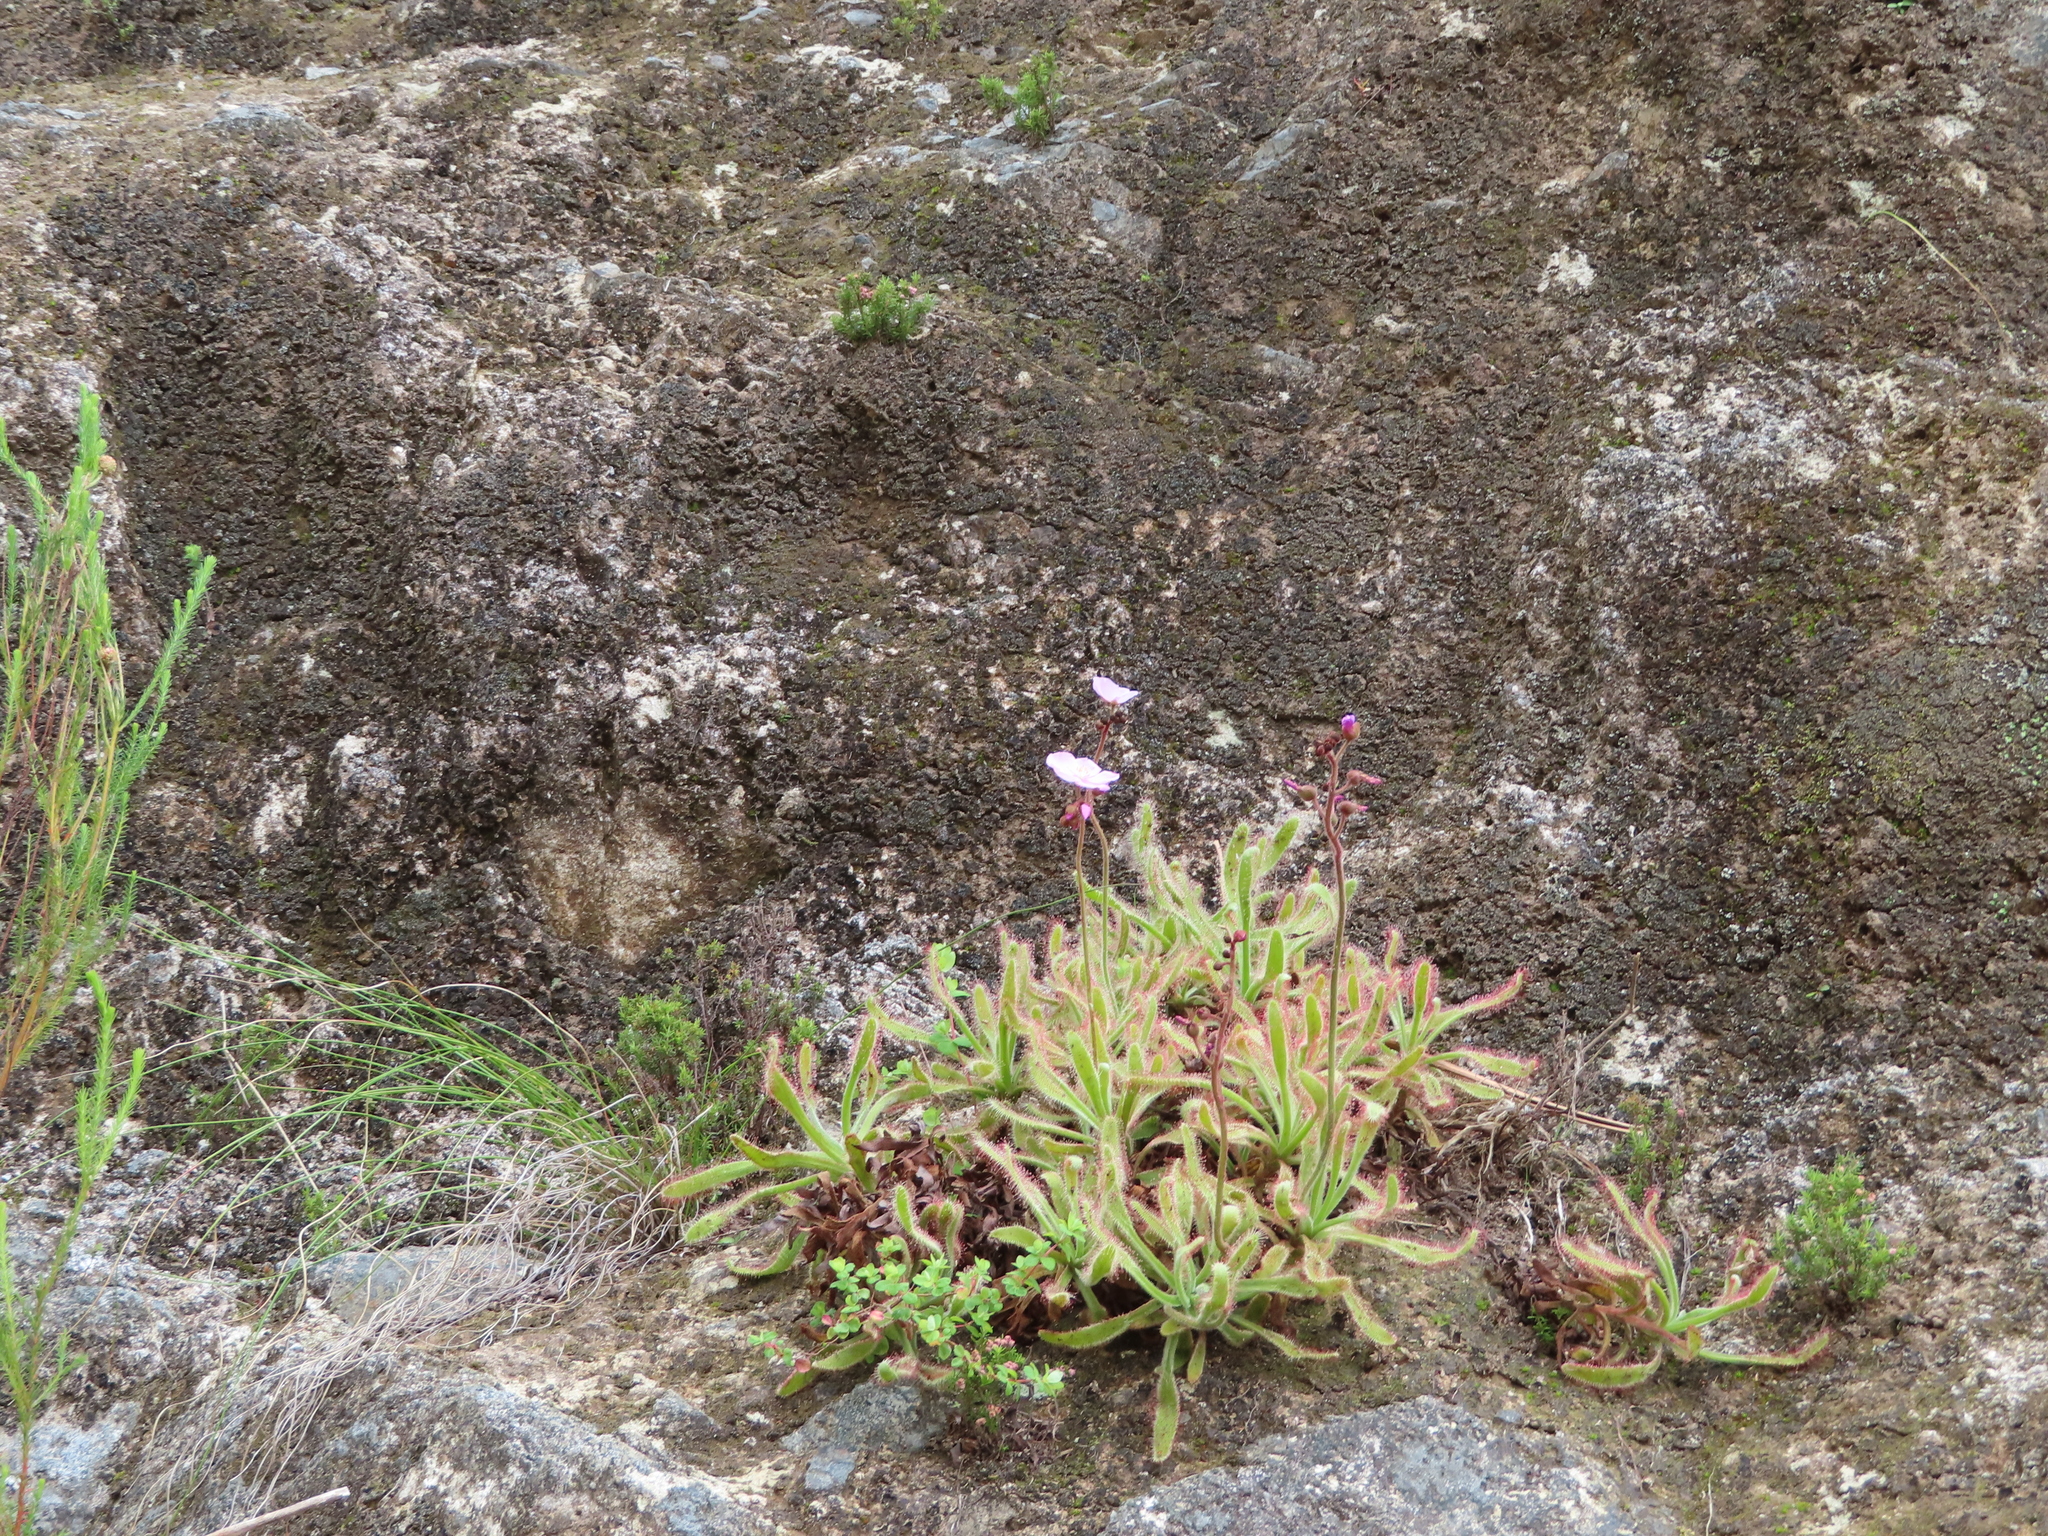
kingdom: Plantae
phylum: Tracheophyta
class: Magnoliopsida
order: Caryophyllales
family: Droseraceae
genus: Drosera
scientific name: Drosera hilaris
